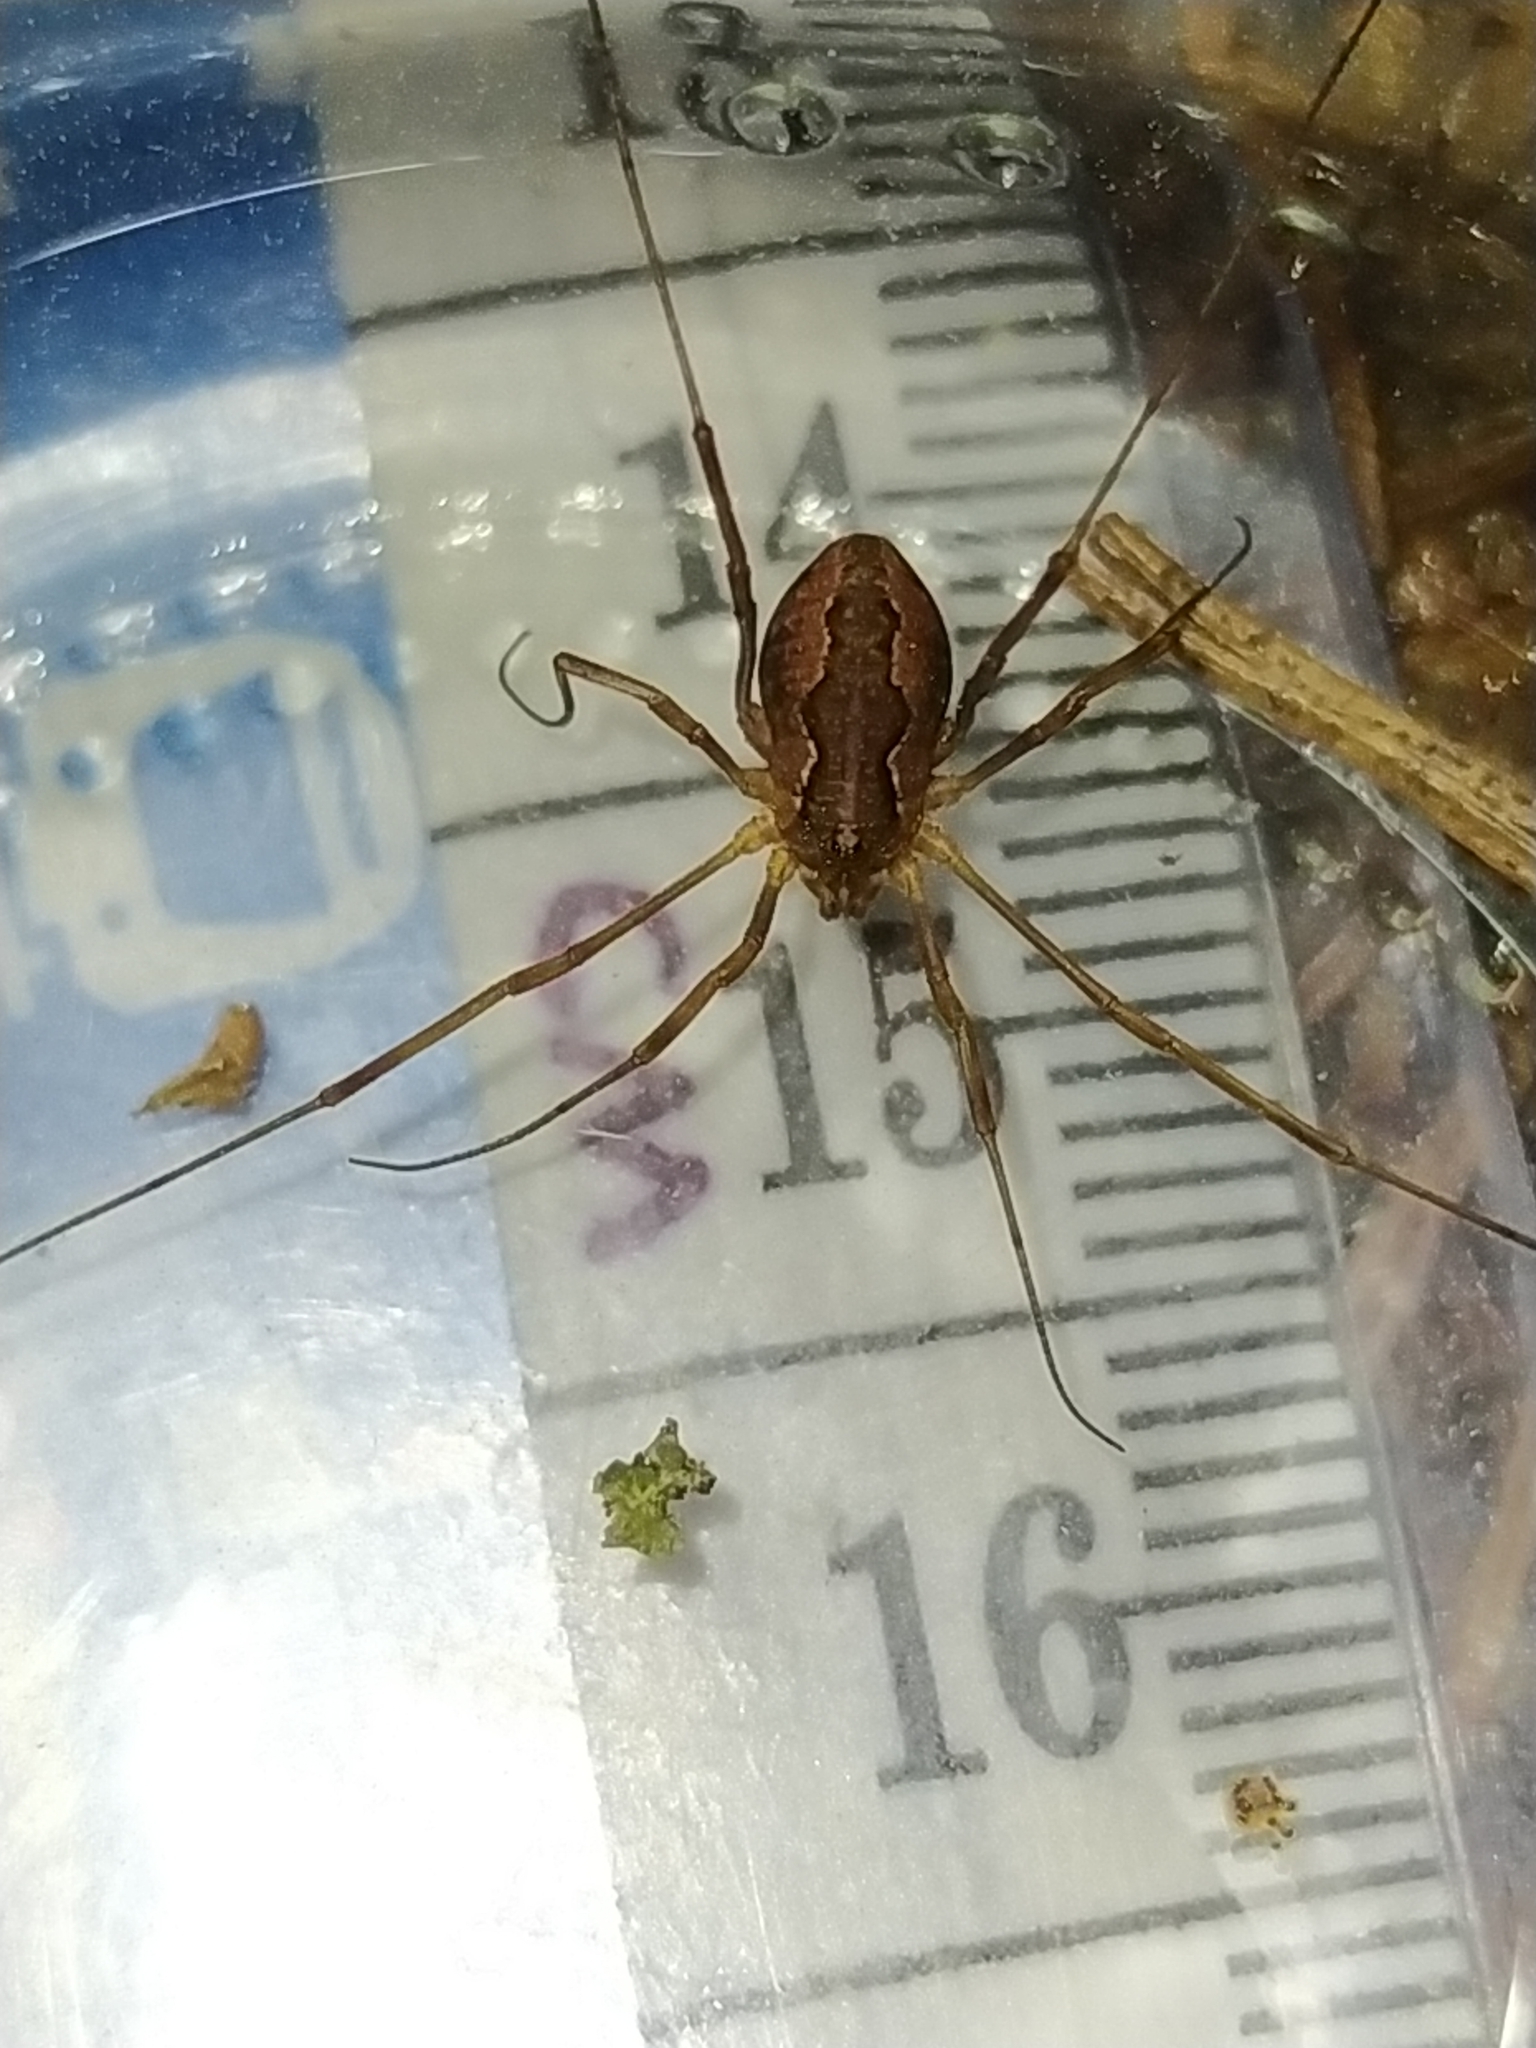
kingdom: Animalia
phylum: Arthropoda
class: Arachnida
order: Opiliones
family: Phalangiidae
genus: Mitopus
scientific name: Mitopus morio
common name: Saddleback harvestman
